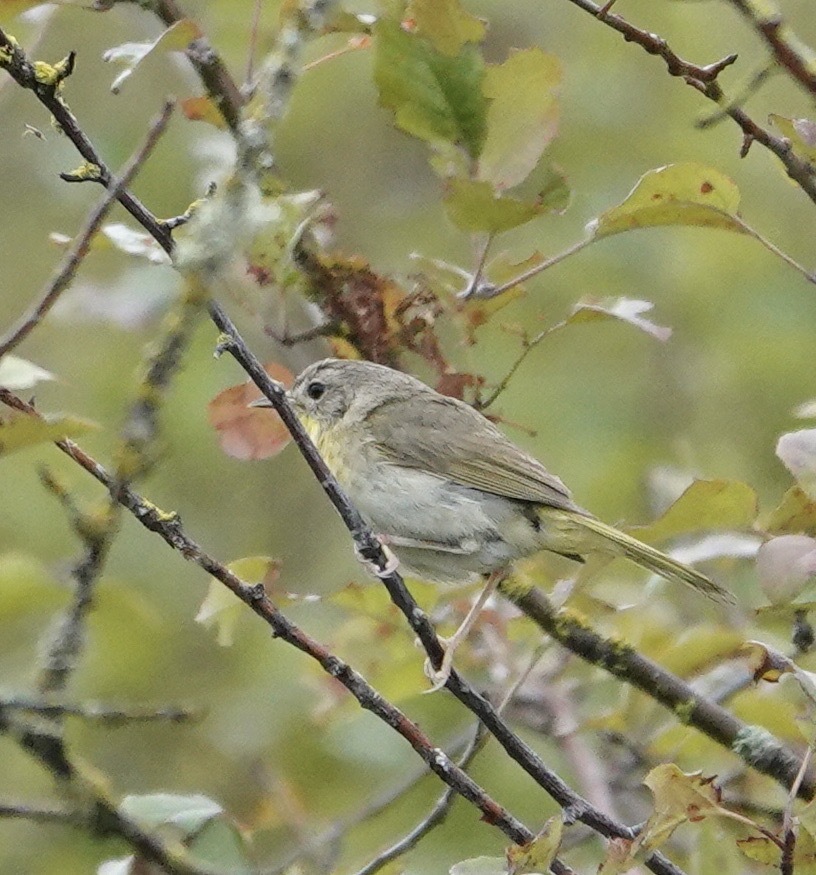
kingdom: Animalia
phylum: Chordata
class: Aves
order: Passeriformes
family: Parulidae
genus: Geothlypis
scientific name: Geothlypis trichas
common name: Common yellowthroat
